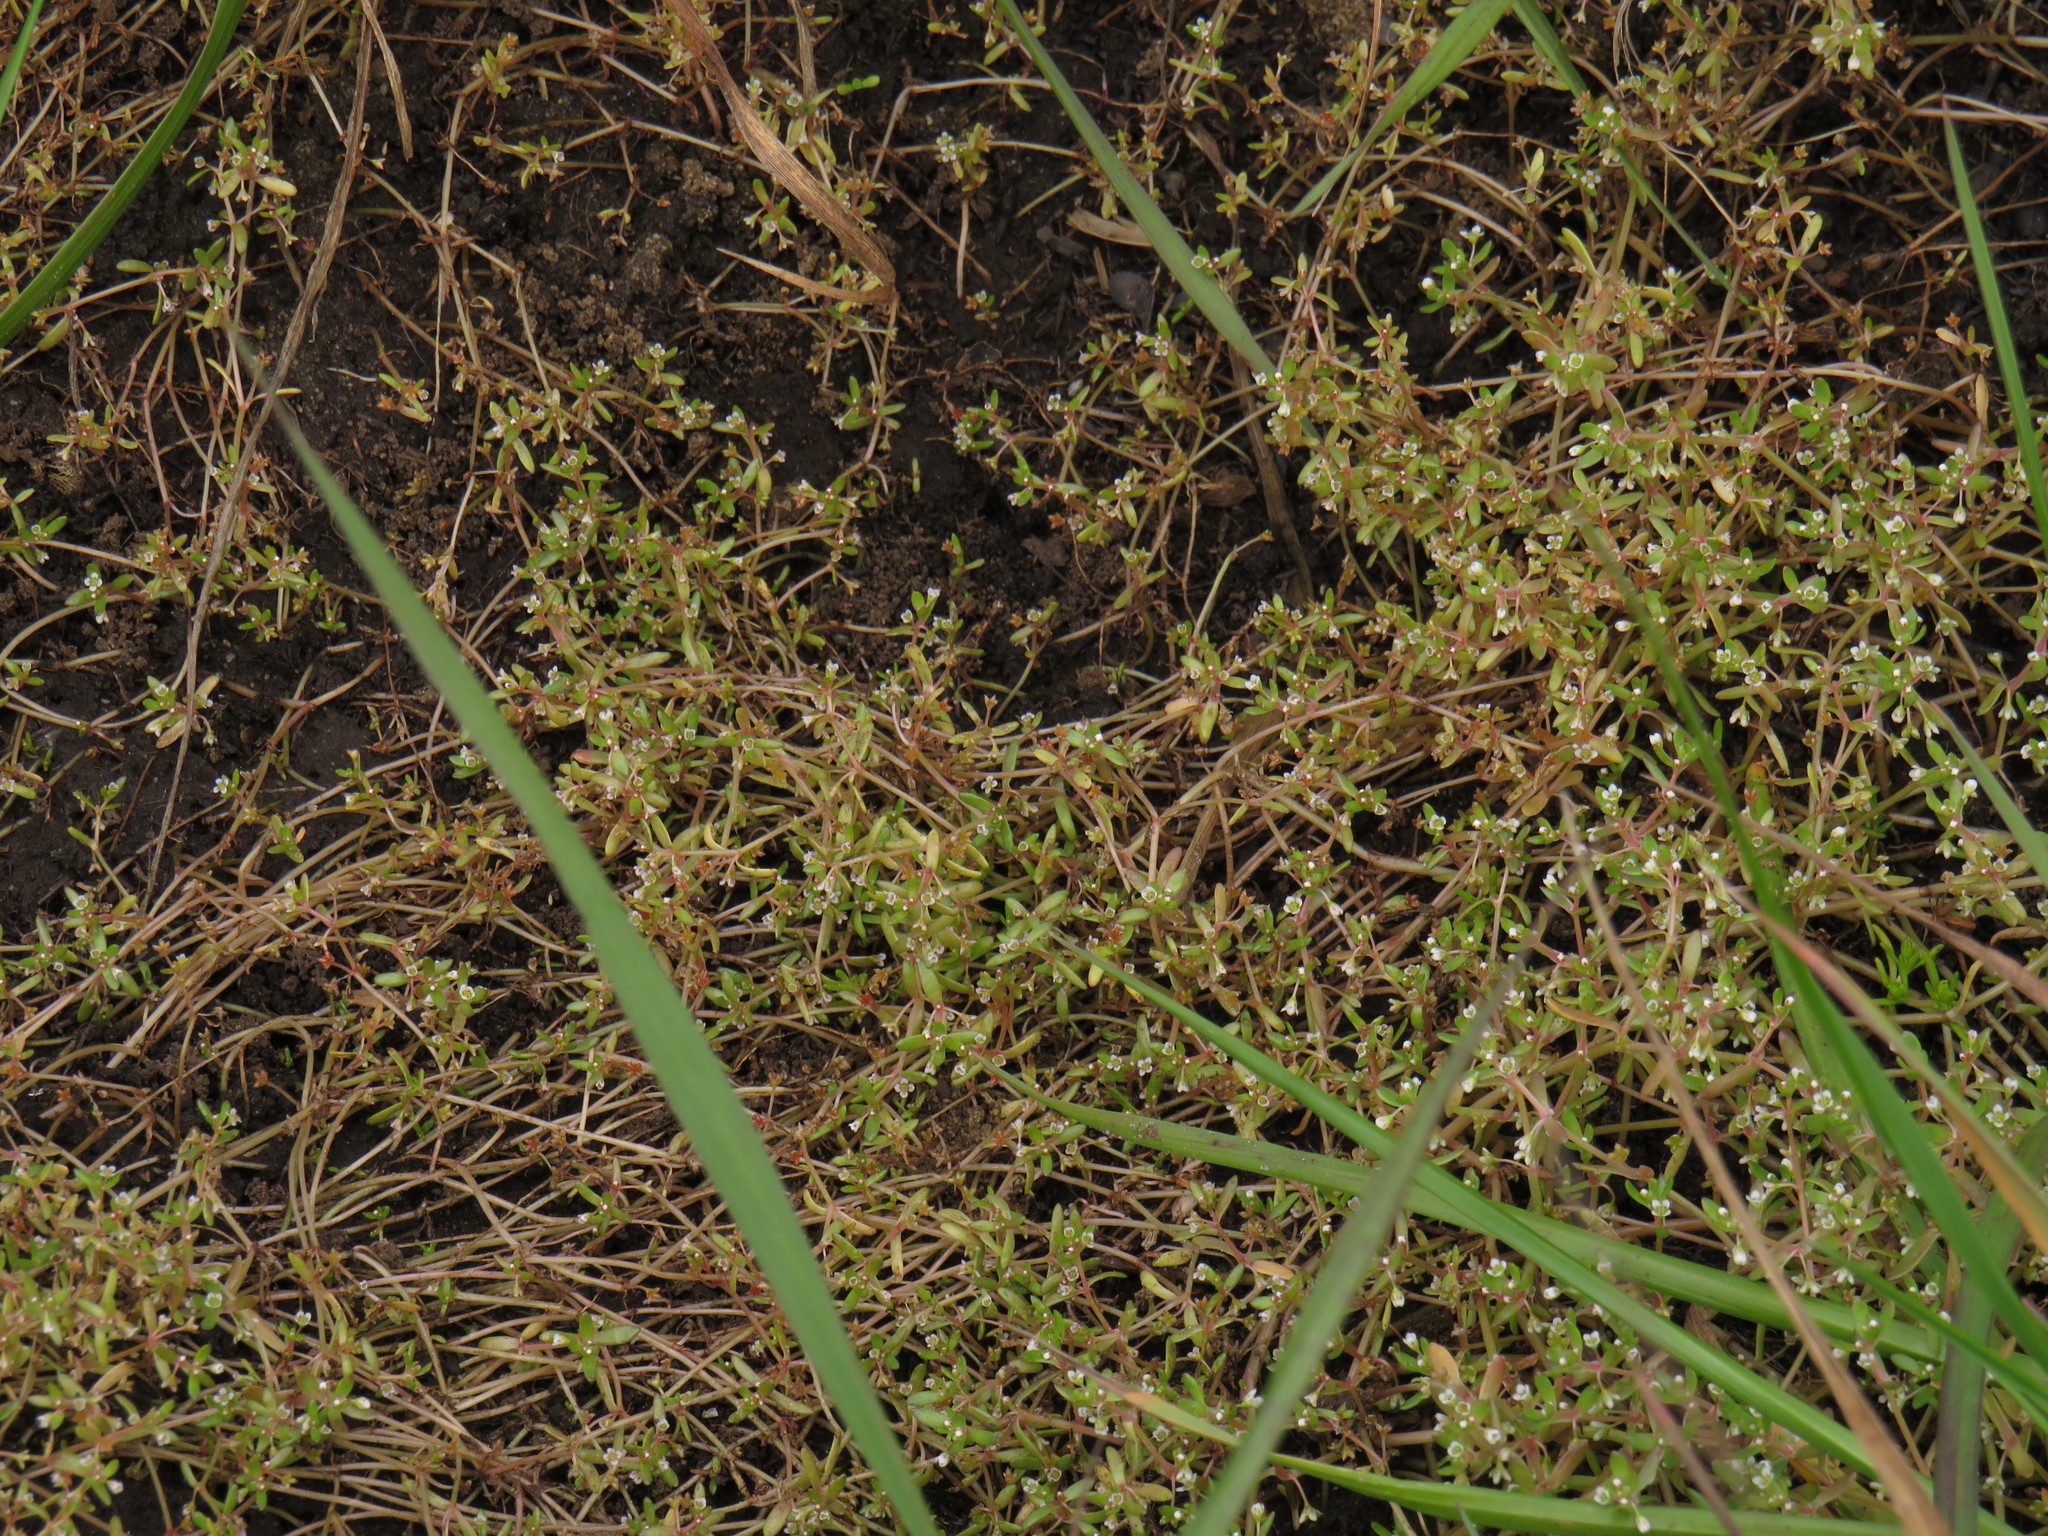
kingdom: Plantae
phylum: Tracheophyta
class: Magnoliopsida
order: Saxifragales
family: Crassulaceae
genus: Crassula
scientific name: Crassula natans
